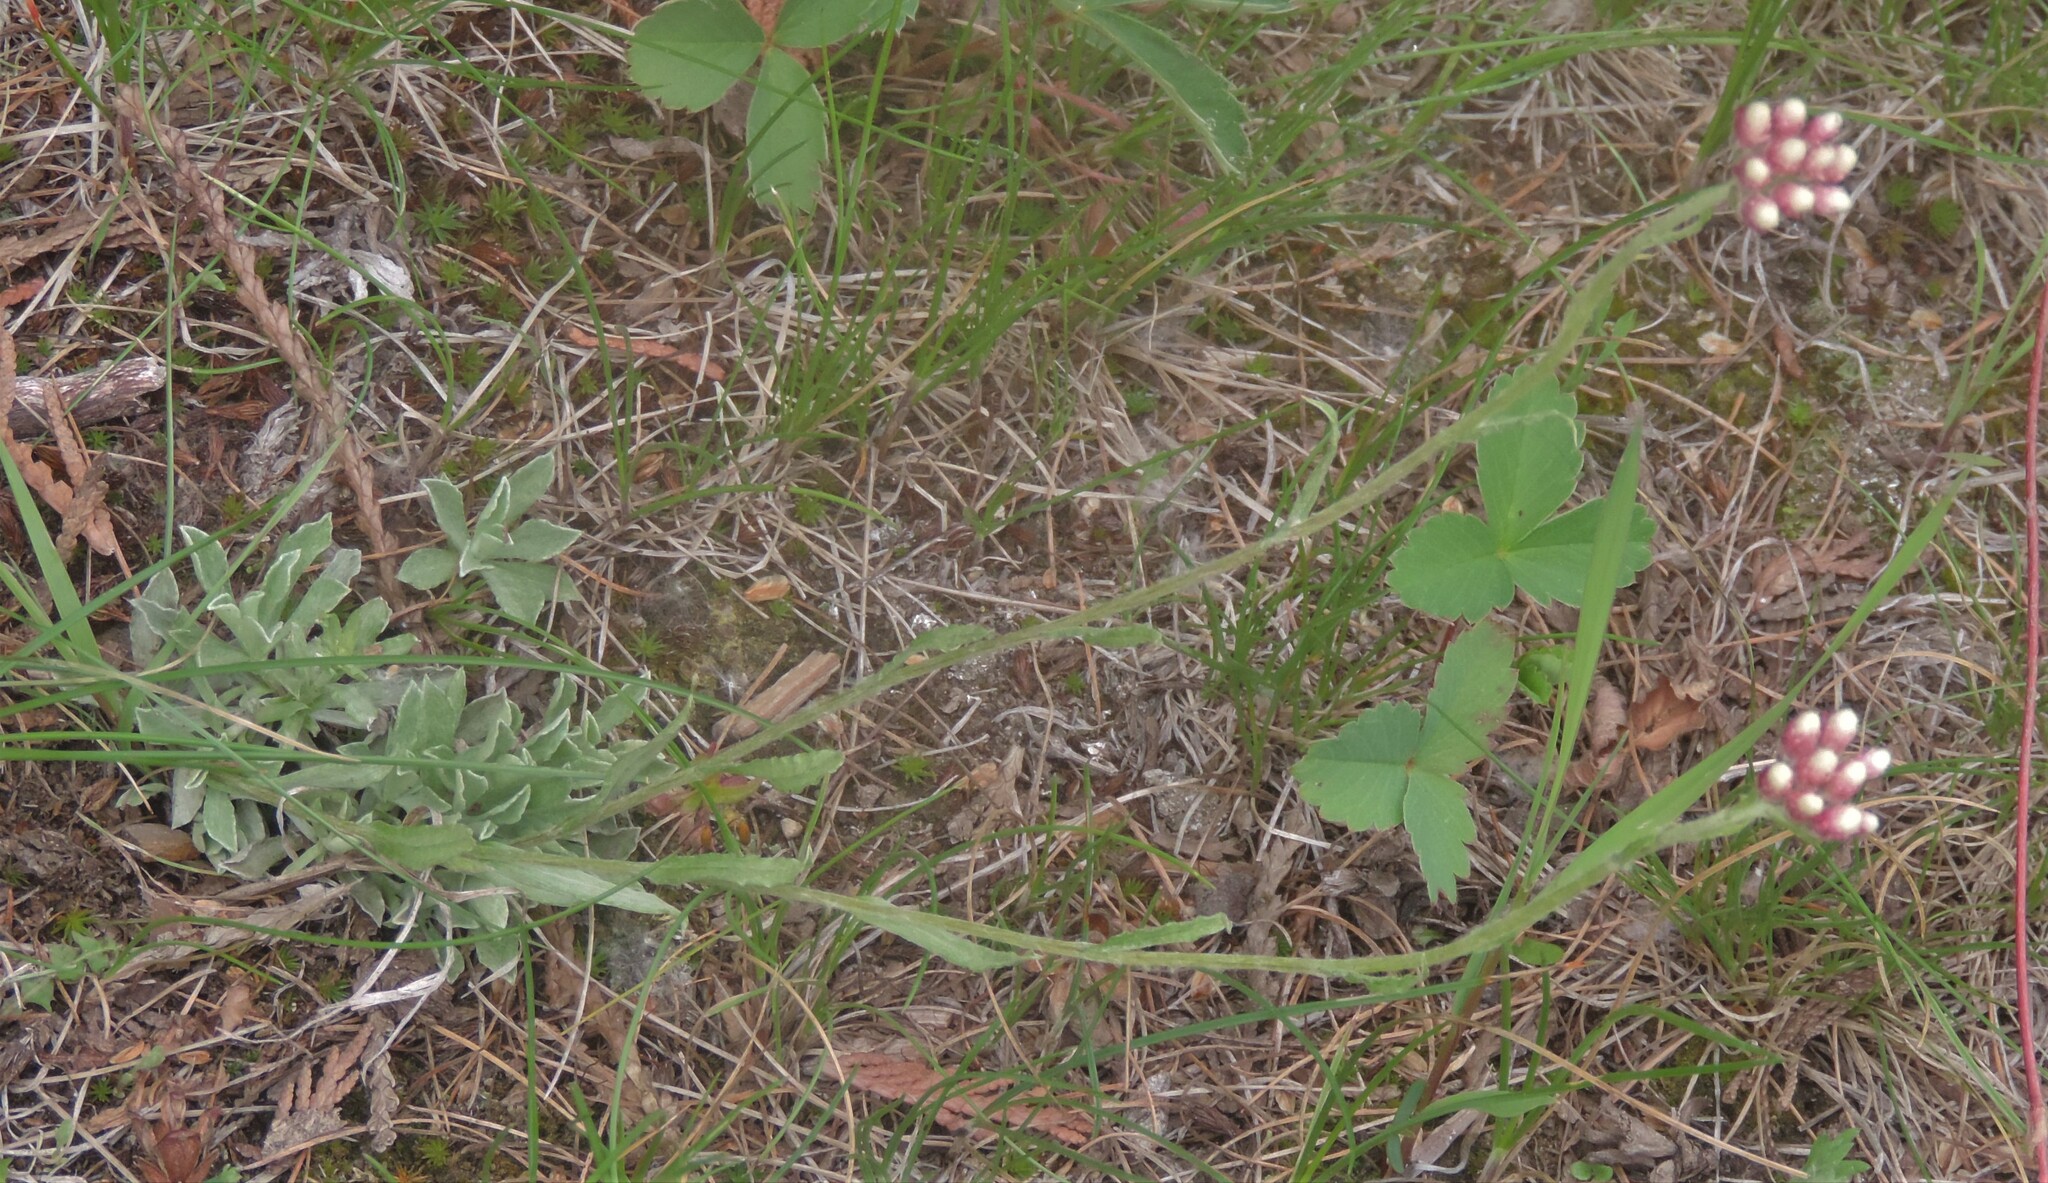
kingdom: Plantae
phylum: Tracheophyta
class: Magnoliopsida
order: Asterales
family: Asteraceae
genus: Antennaria
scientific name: Antennaria rosea
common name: Rosy pussytoes
